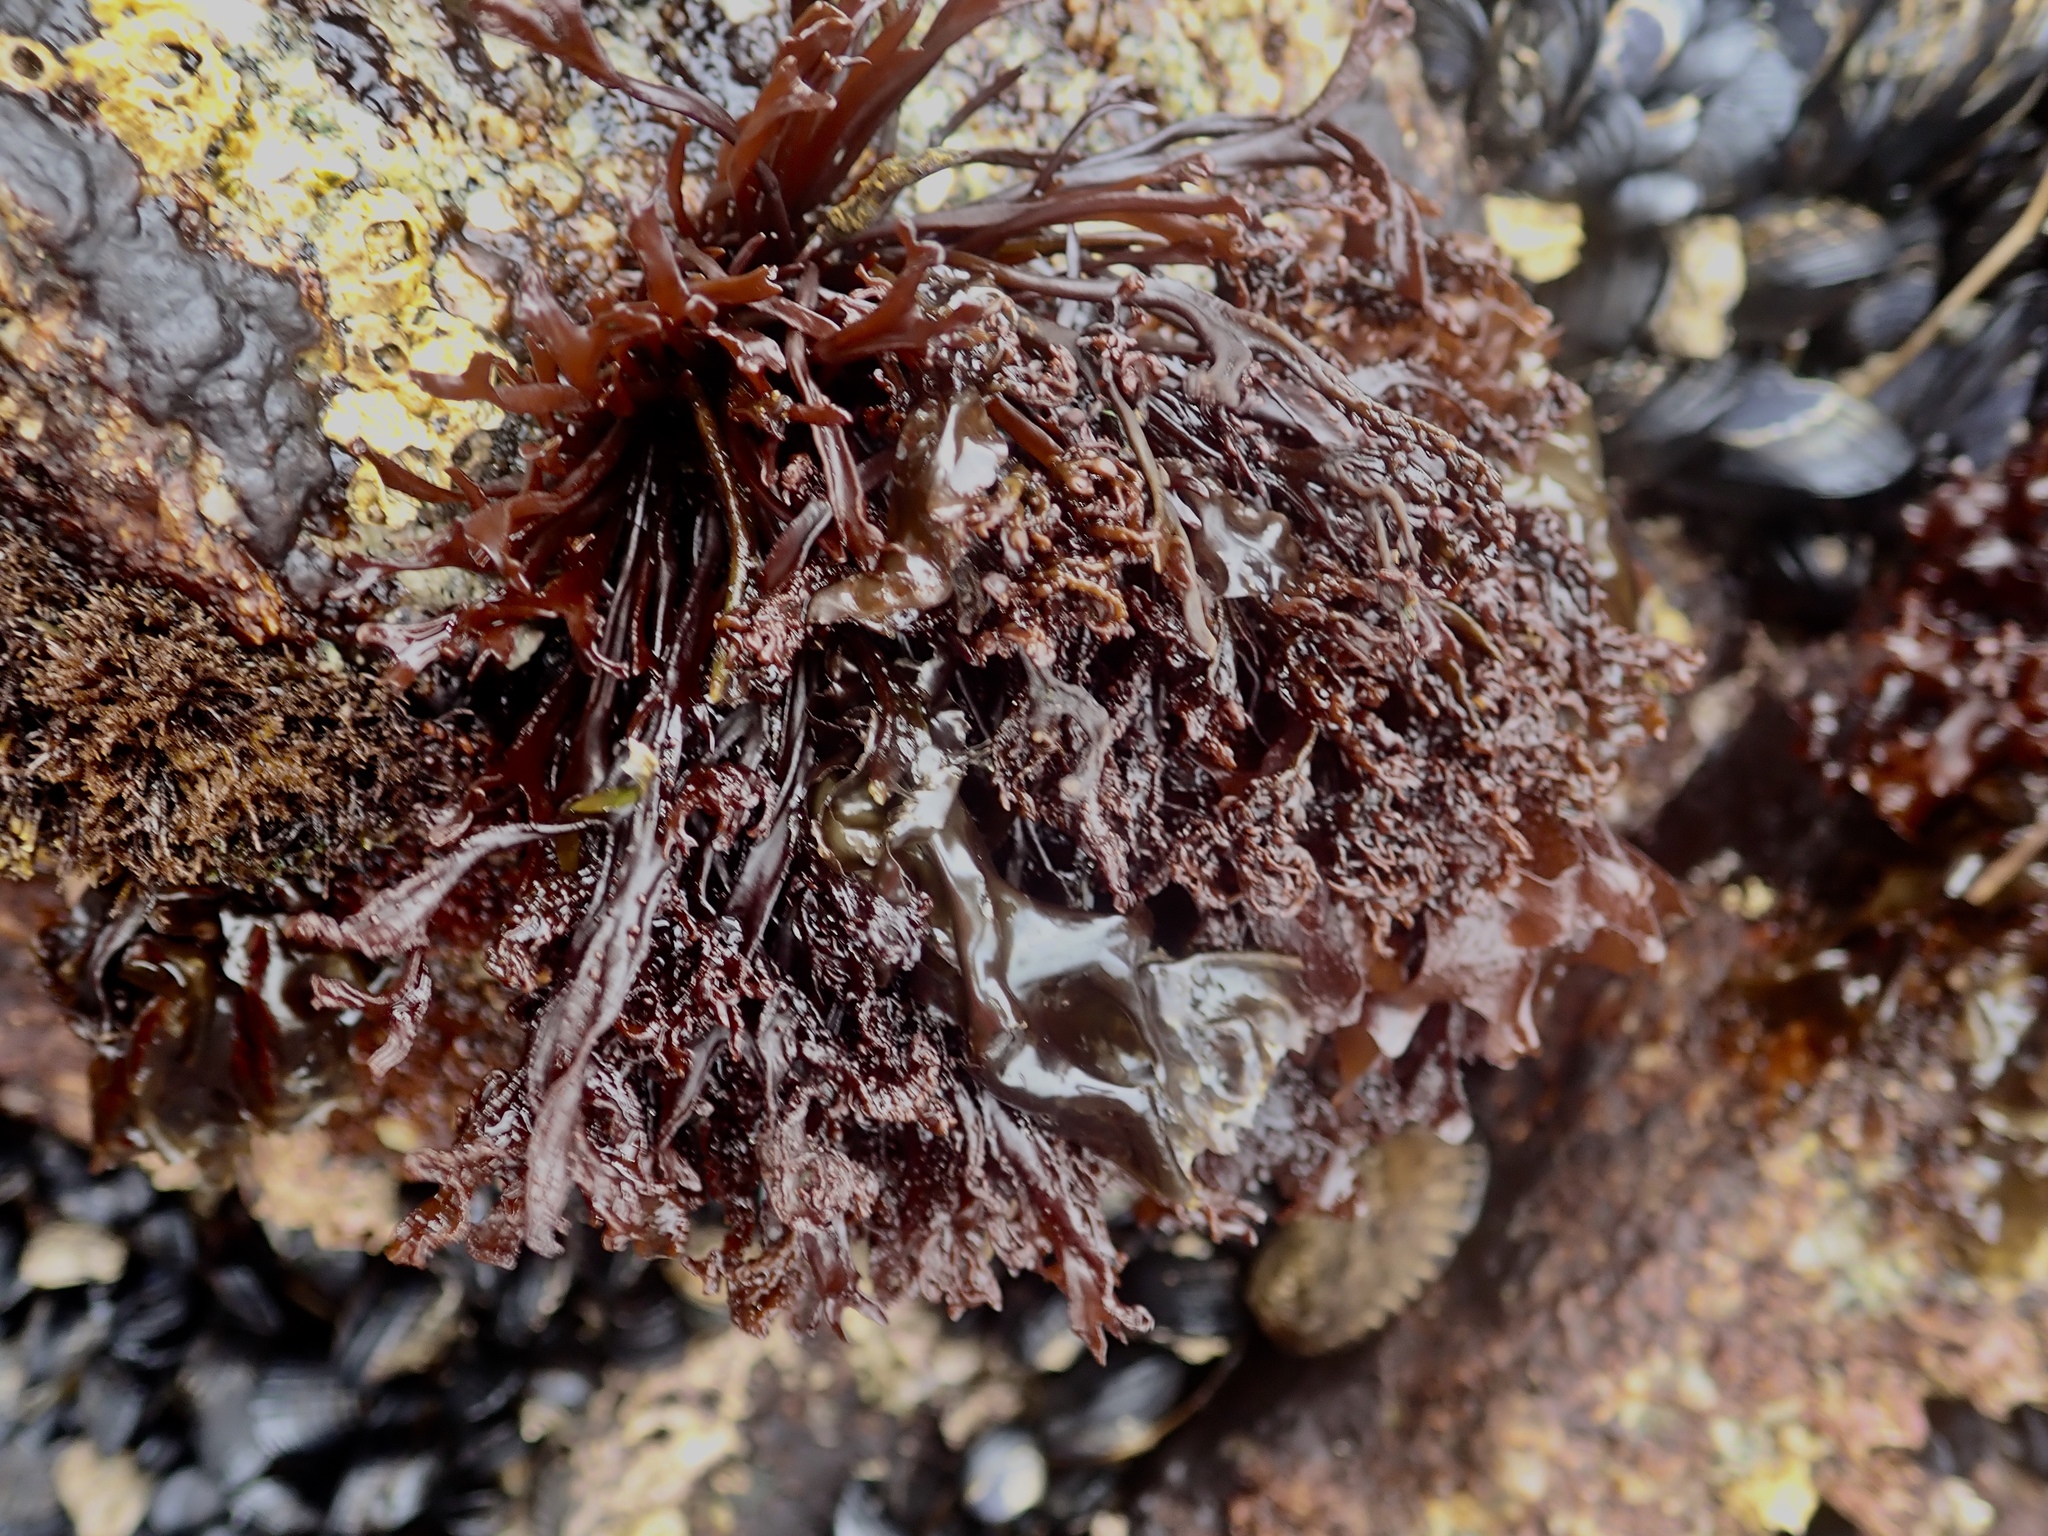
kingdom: Plantae
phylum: Rhodophyta
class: Florideophyceae
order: Gigartinales
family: Phyllophoraceae
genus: Mastocarpus
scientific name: Mastocarpus jardinii
